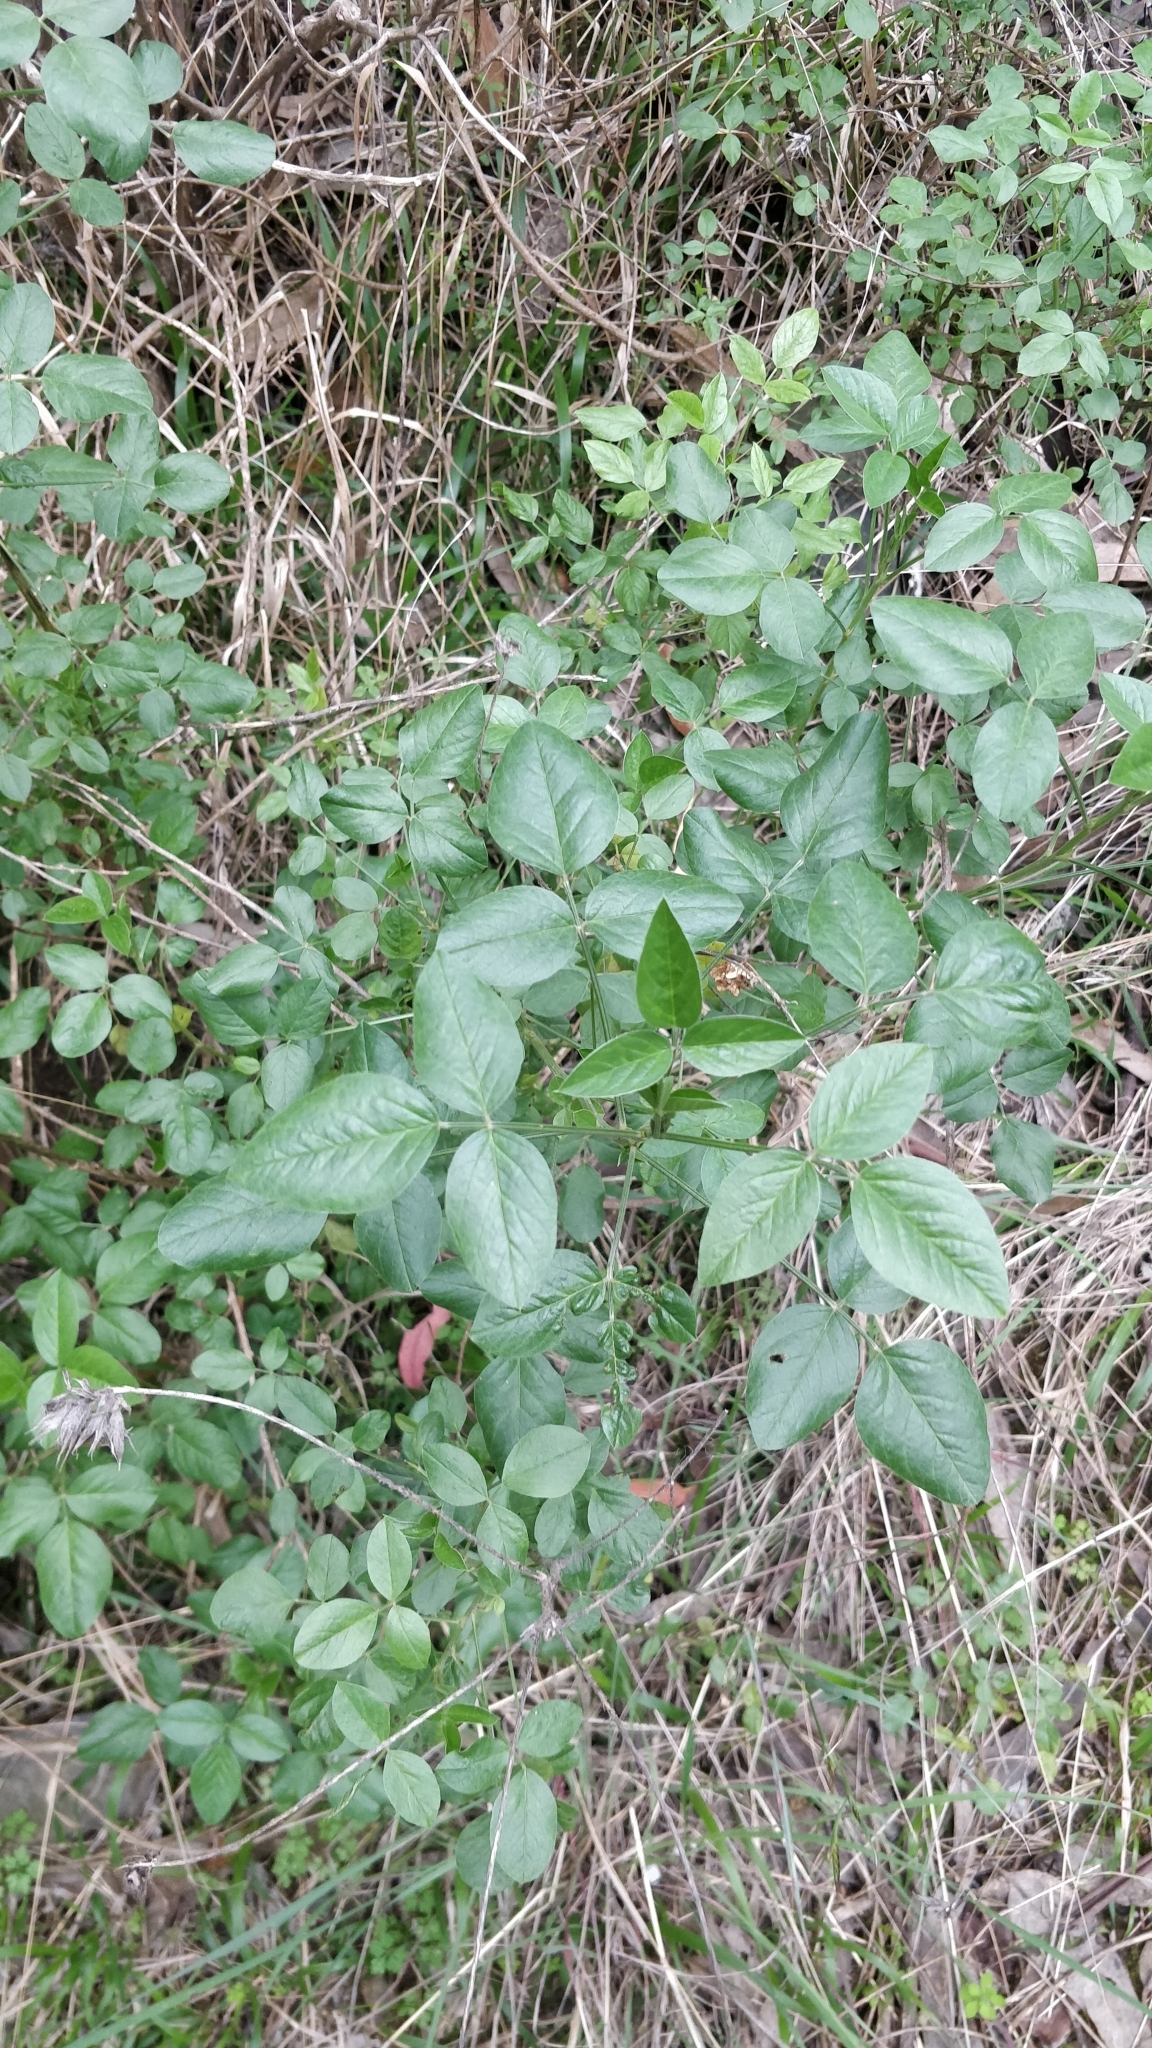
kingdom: Plantae
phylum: Tracheophyta
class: Magnoliopsida
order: Fabales
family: Fabaceae
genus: Bituminaria
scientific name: Bituminaria bituminosa
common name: Arabian pea
